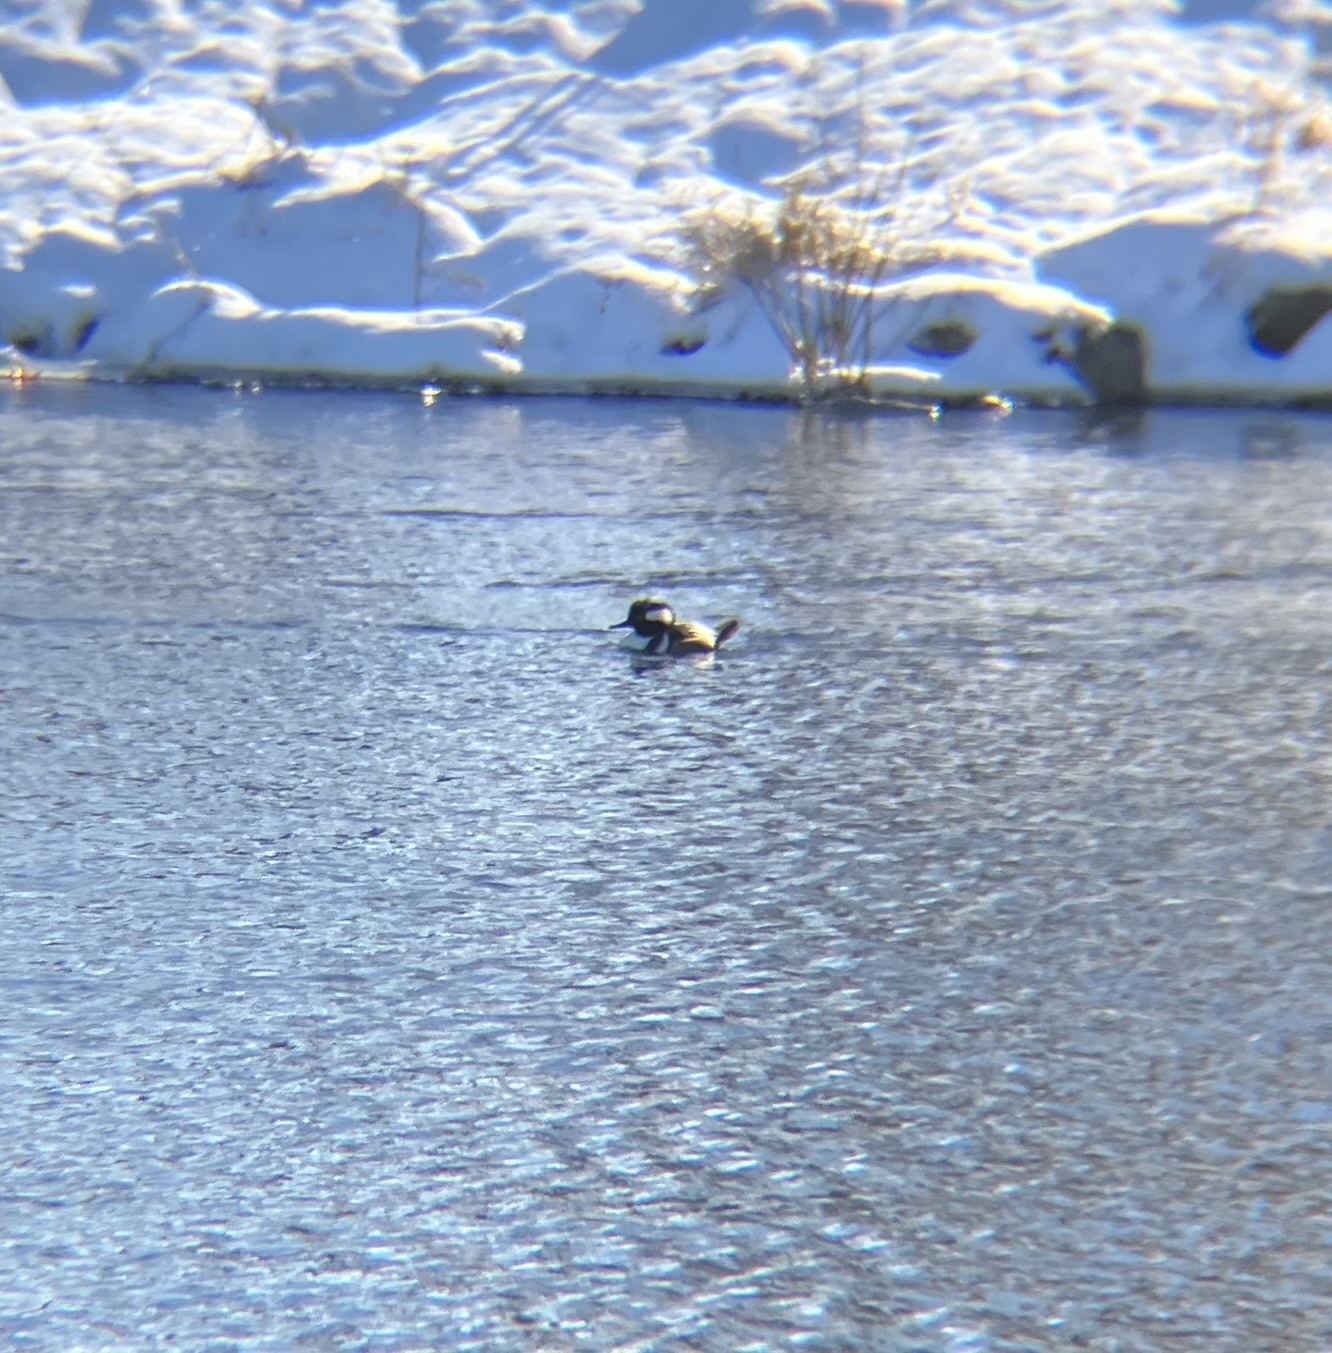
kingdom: Animalia
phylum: Chordata
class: Aves
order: Anseriformes
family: Anatidae
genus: Lophodytes
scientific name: Lophodytes cucullatus
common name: Hooded merganser
